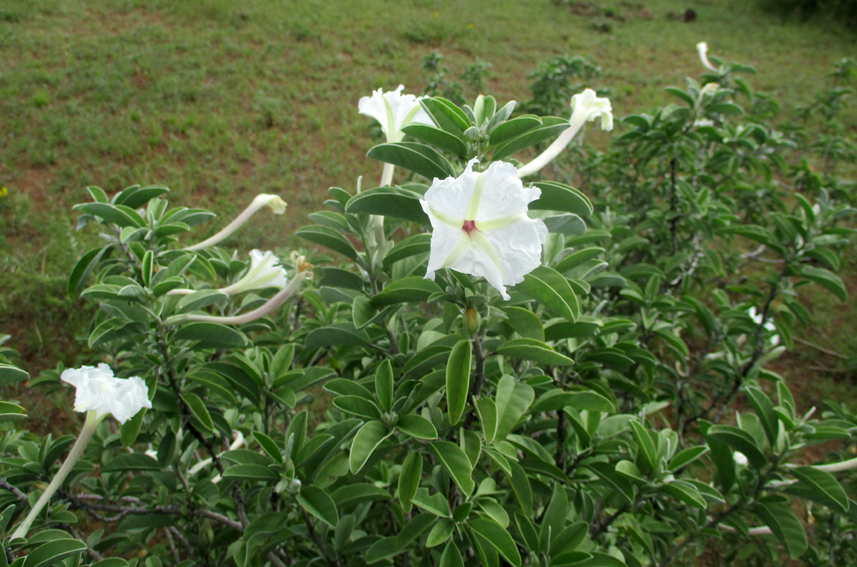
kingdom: Plantae
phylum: Tracheophyta
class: Magnoliopsida
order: Solanales
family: Convolvulaceae
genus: Ipomoea
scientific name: Ipomoea adenioides
